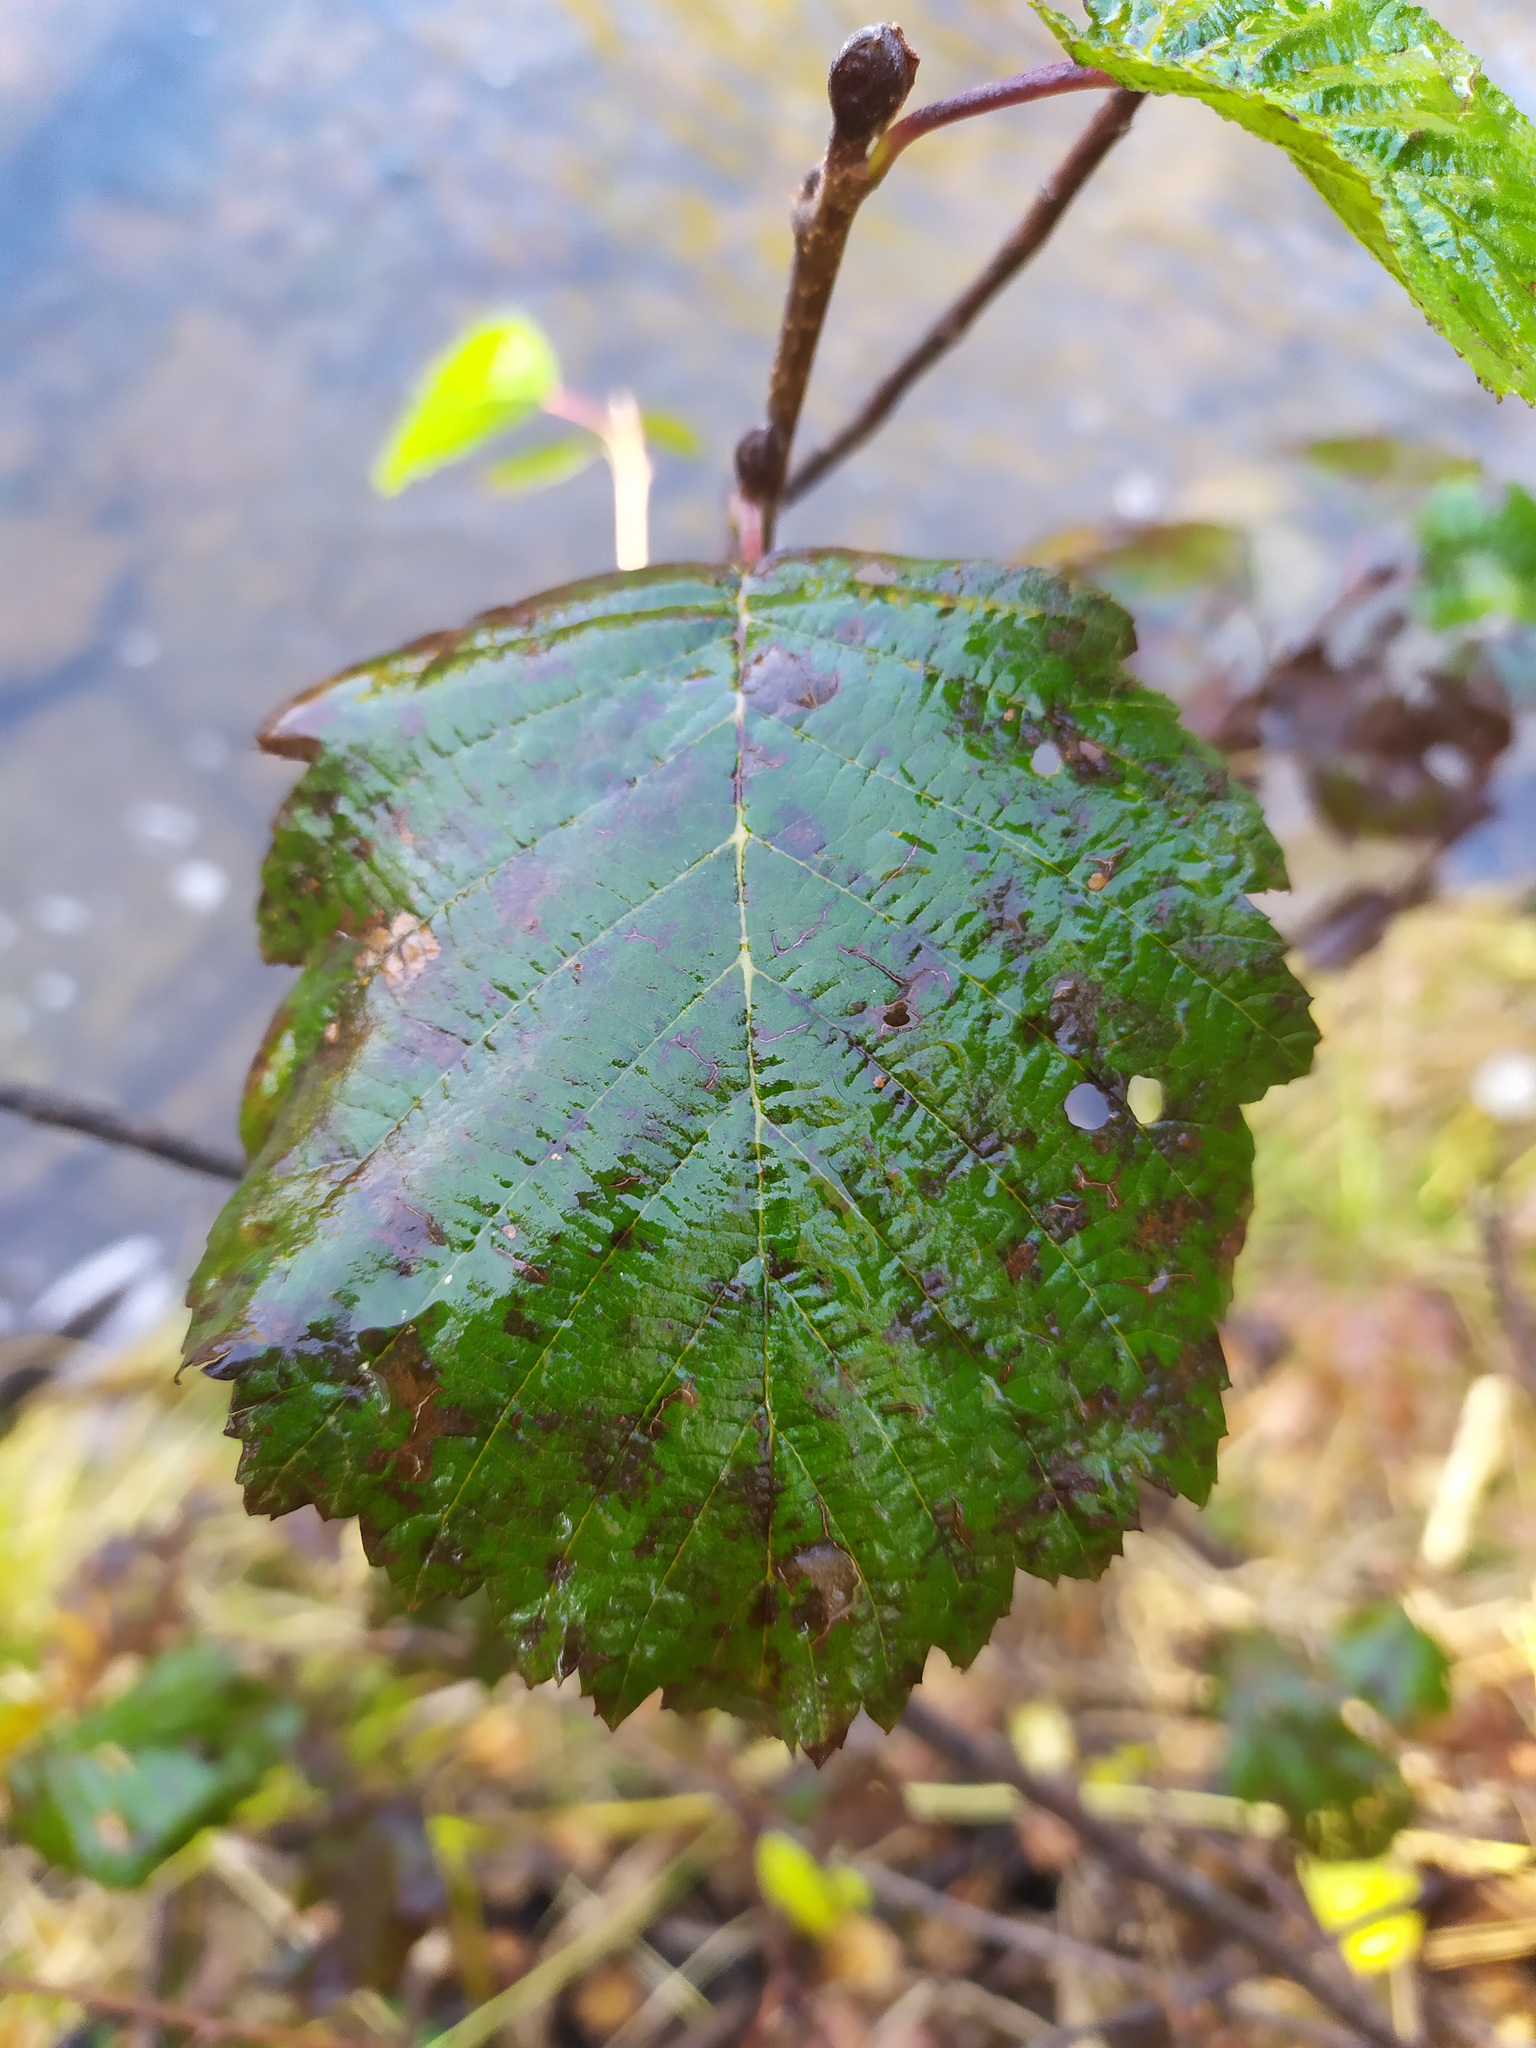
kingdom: Plantae
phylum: Tracheophyta
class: Magnoliopsida
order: Fagales
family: Betulaceae
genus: Alnus
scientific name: Alnus incana
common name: Grey alder
